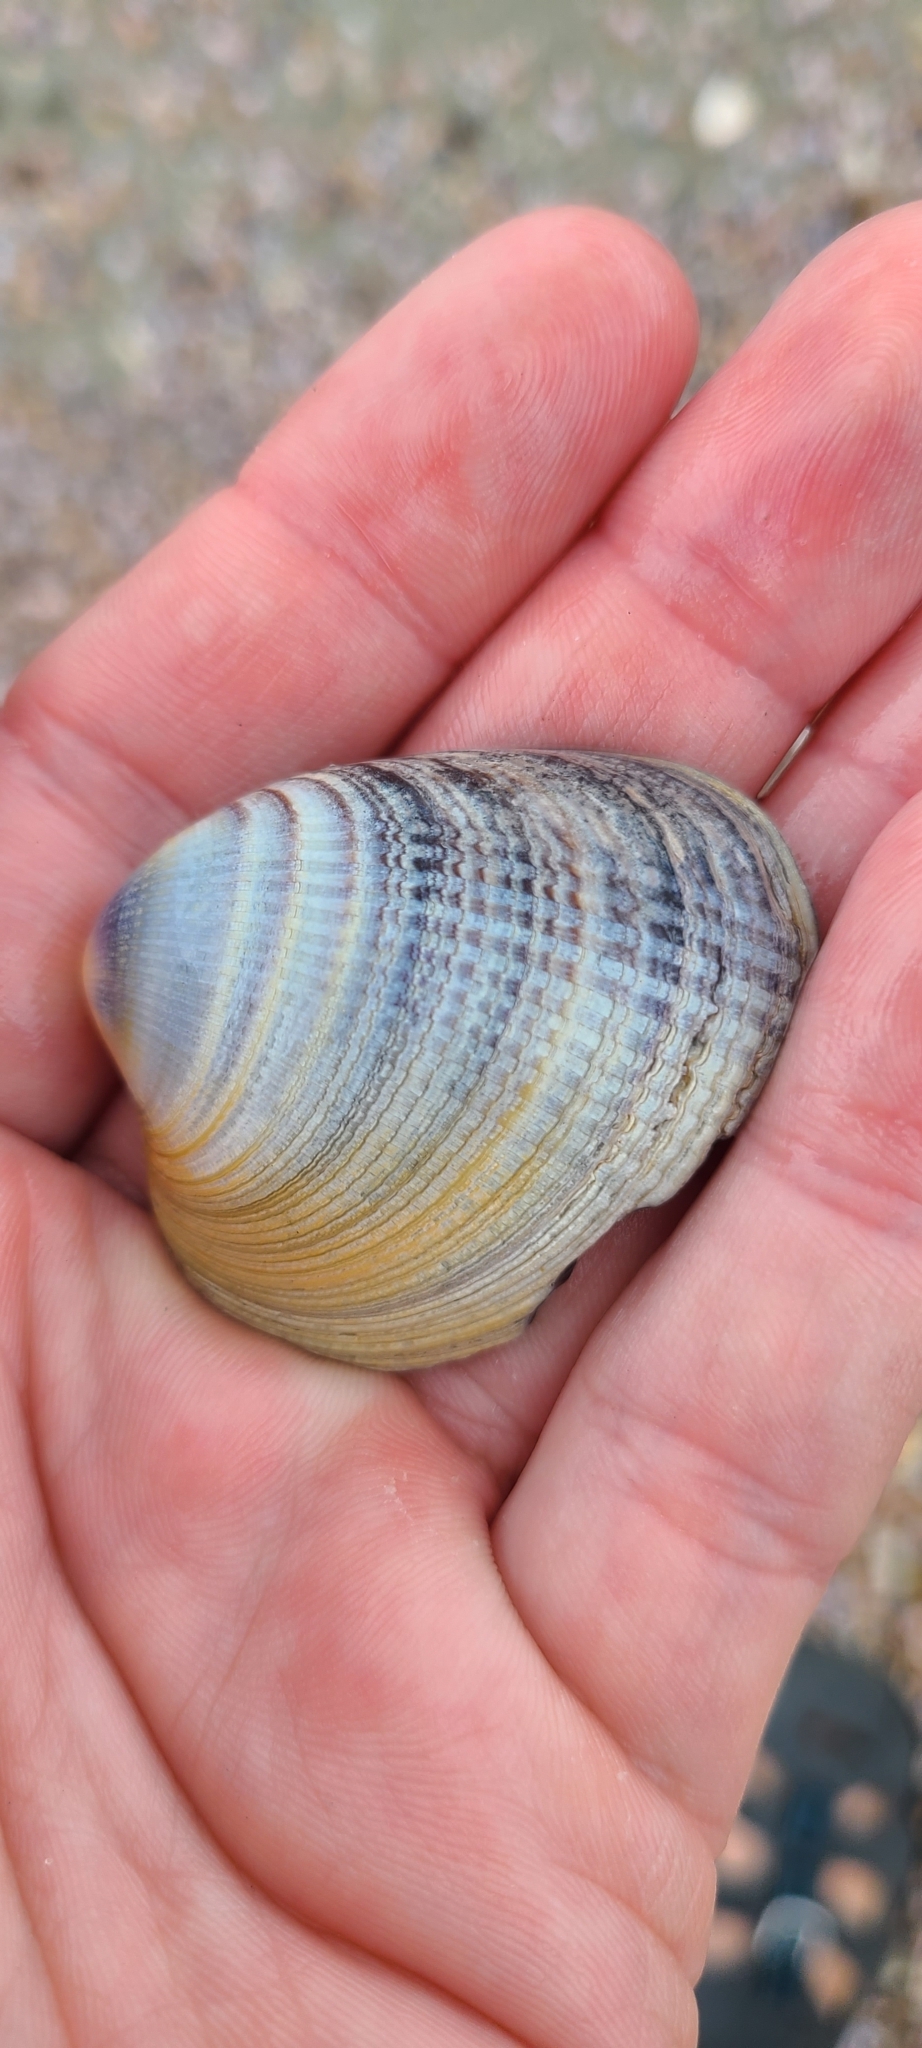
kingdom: Animalia
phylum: Mollusca
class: Bivalvia
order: Venerida
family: Veneridae
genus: Austrovenus
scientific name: Austrovenus stutchburyi
